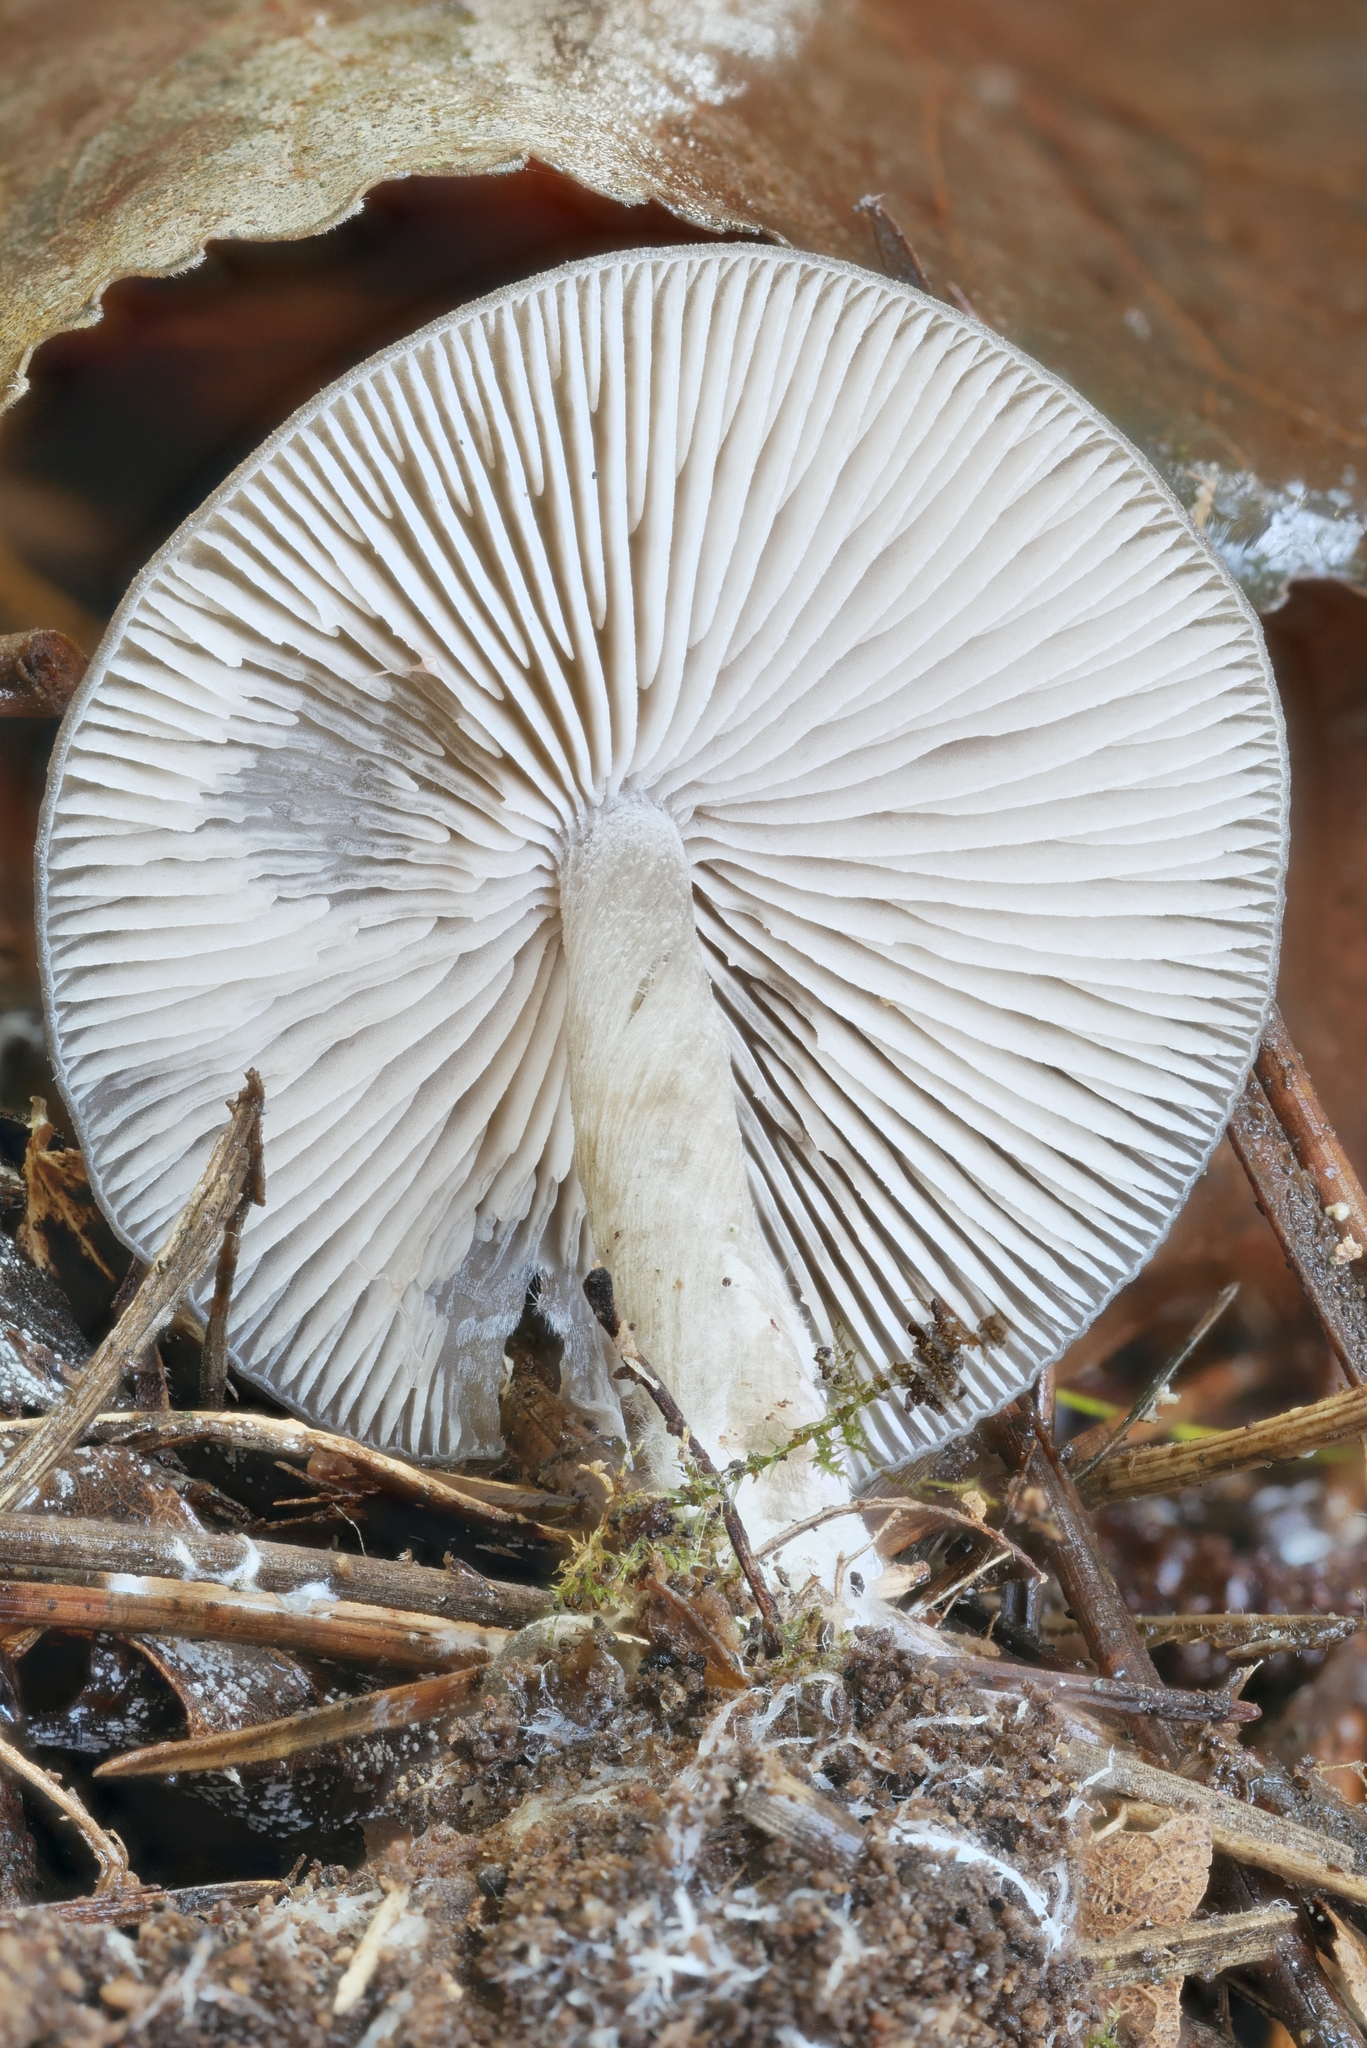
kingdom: Fungi
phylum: Basidiomycota
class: Agaricomycetes
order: Agaricales
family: Entolomataceae
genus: Entoloma
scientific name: Entoloma psammophilohebes
